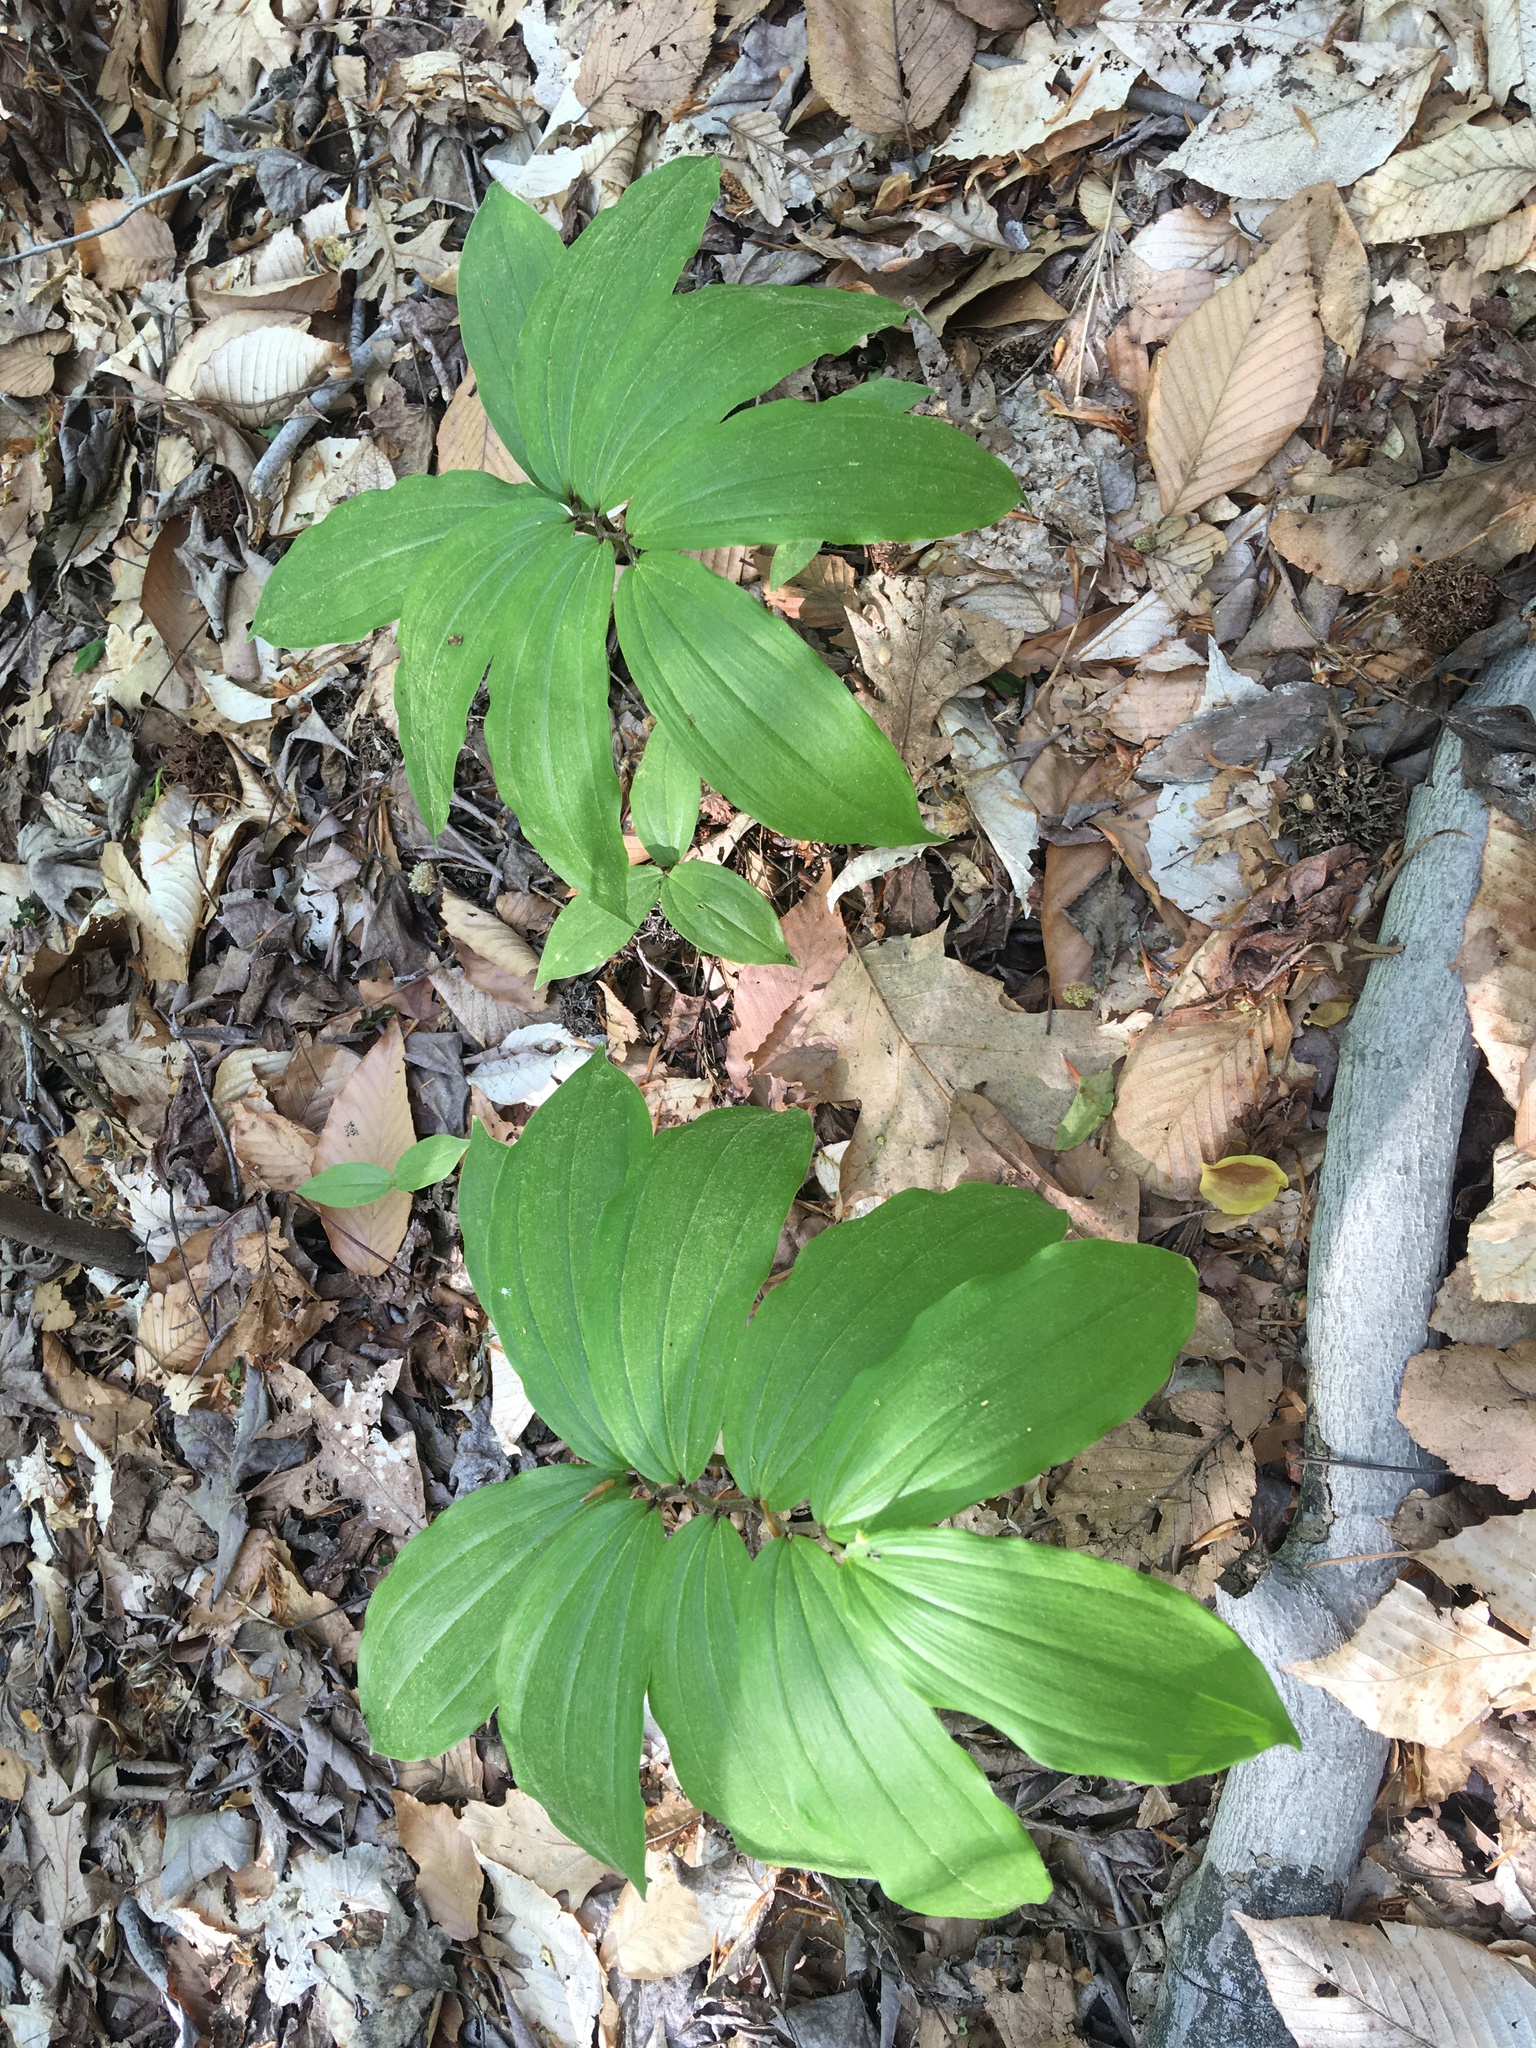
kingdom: Plantae
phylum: Tracheophyta
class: Liliopsida
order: Asparagales
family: Asparagaceae
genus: Maianthemum
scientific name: Maianthemum racemosum
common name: False spikenard
